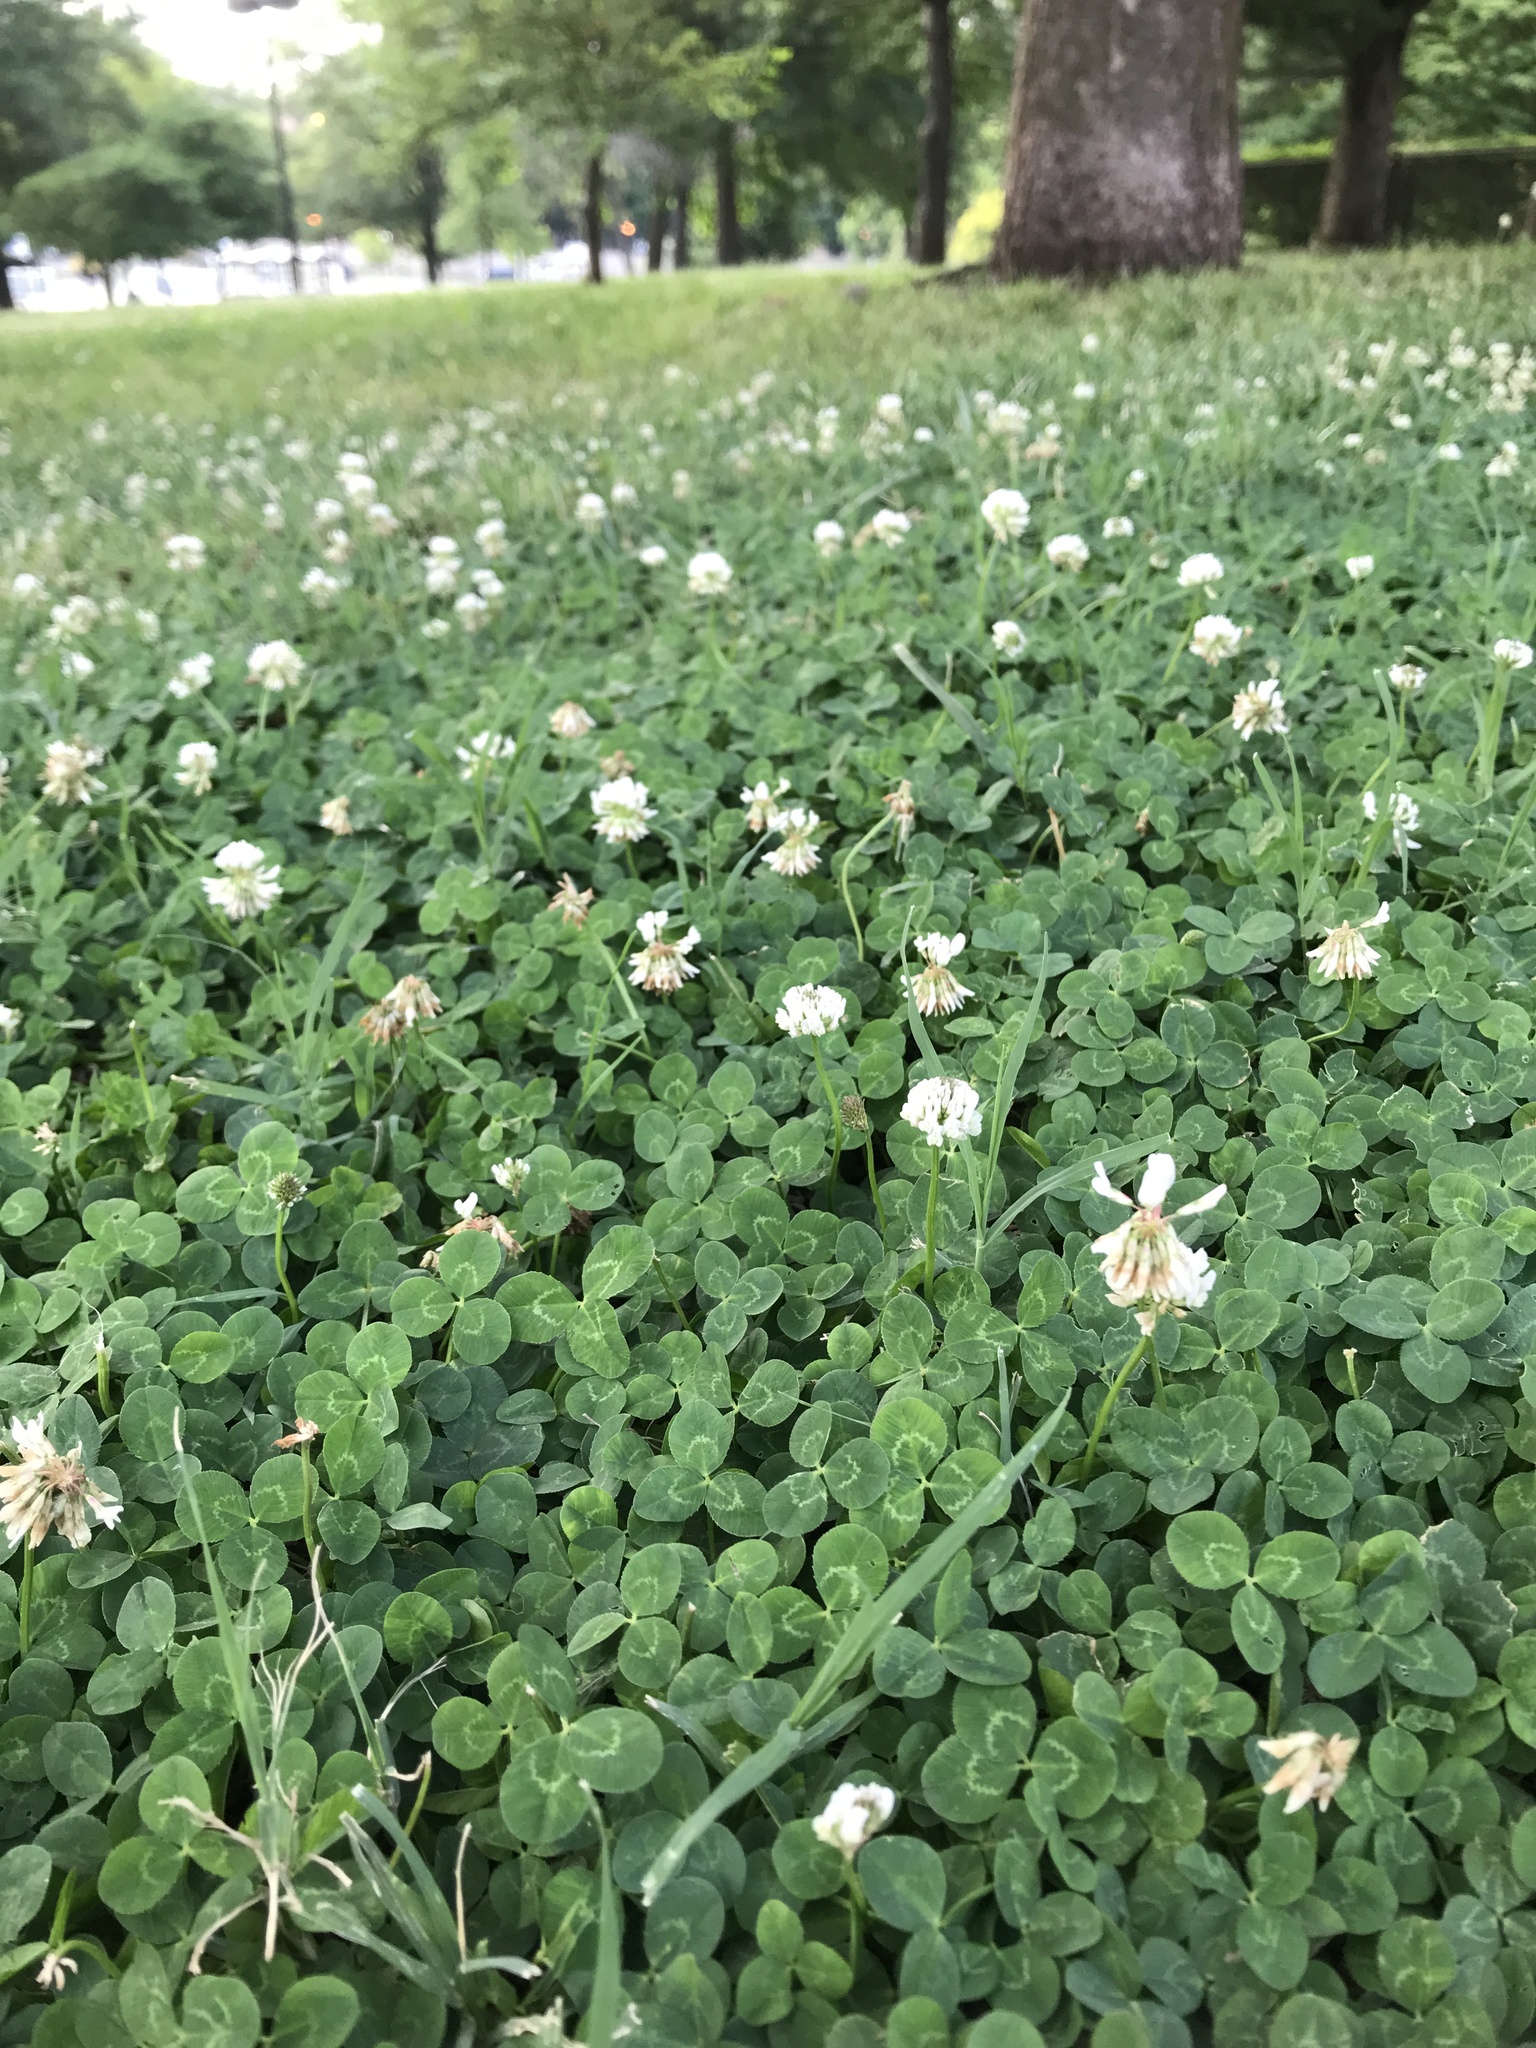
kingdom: Plantae
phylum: Tracheophyta
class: Magnoliopsida
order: Fabales
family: Fabaceae
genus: Trifolium
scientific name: Trifolium repens
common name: White clover
